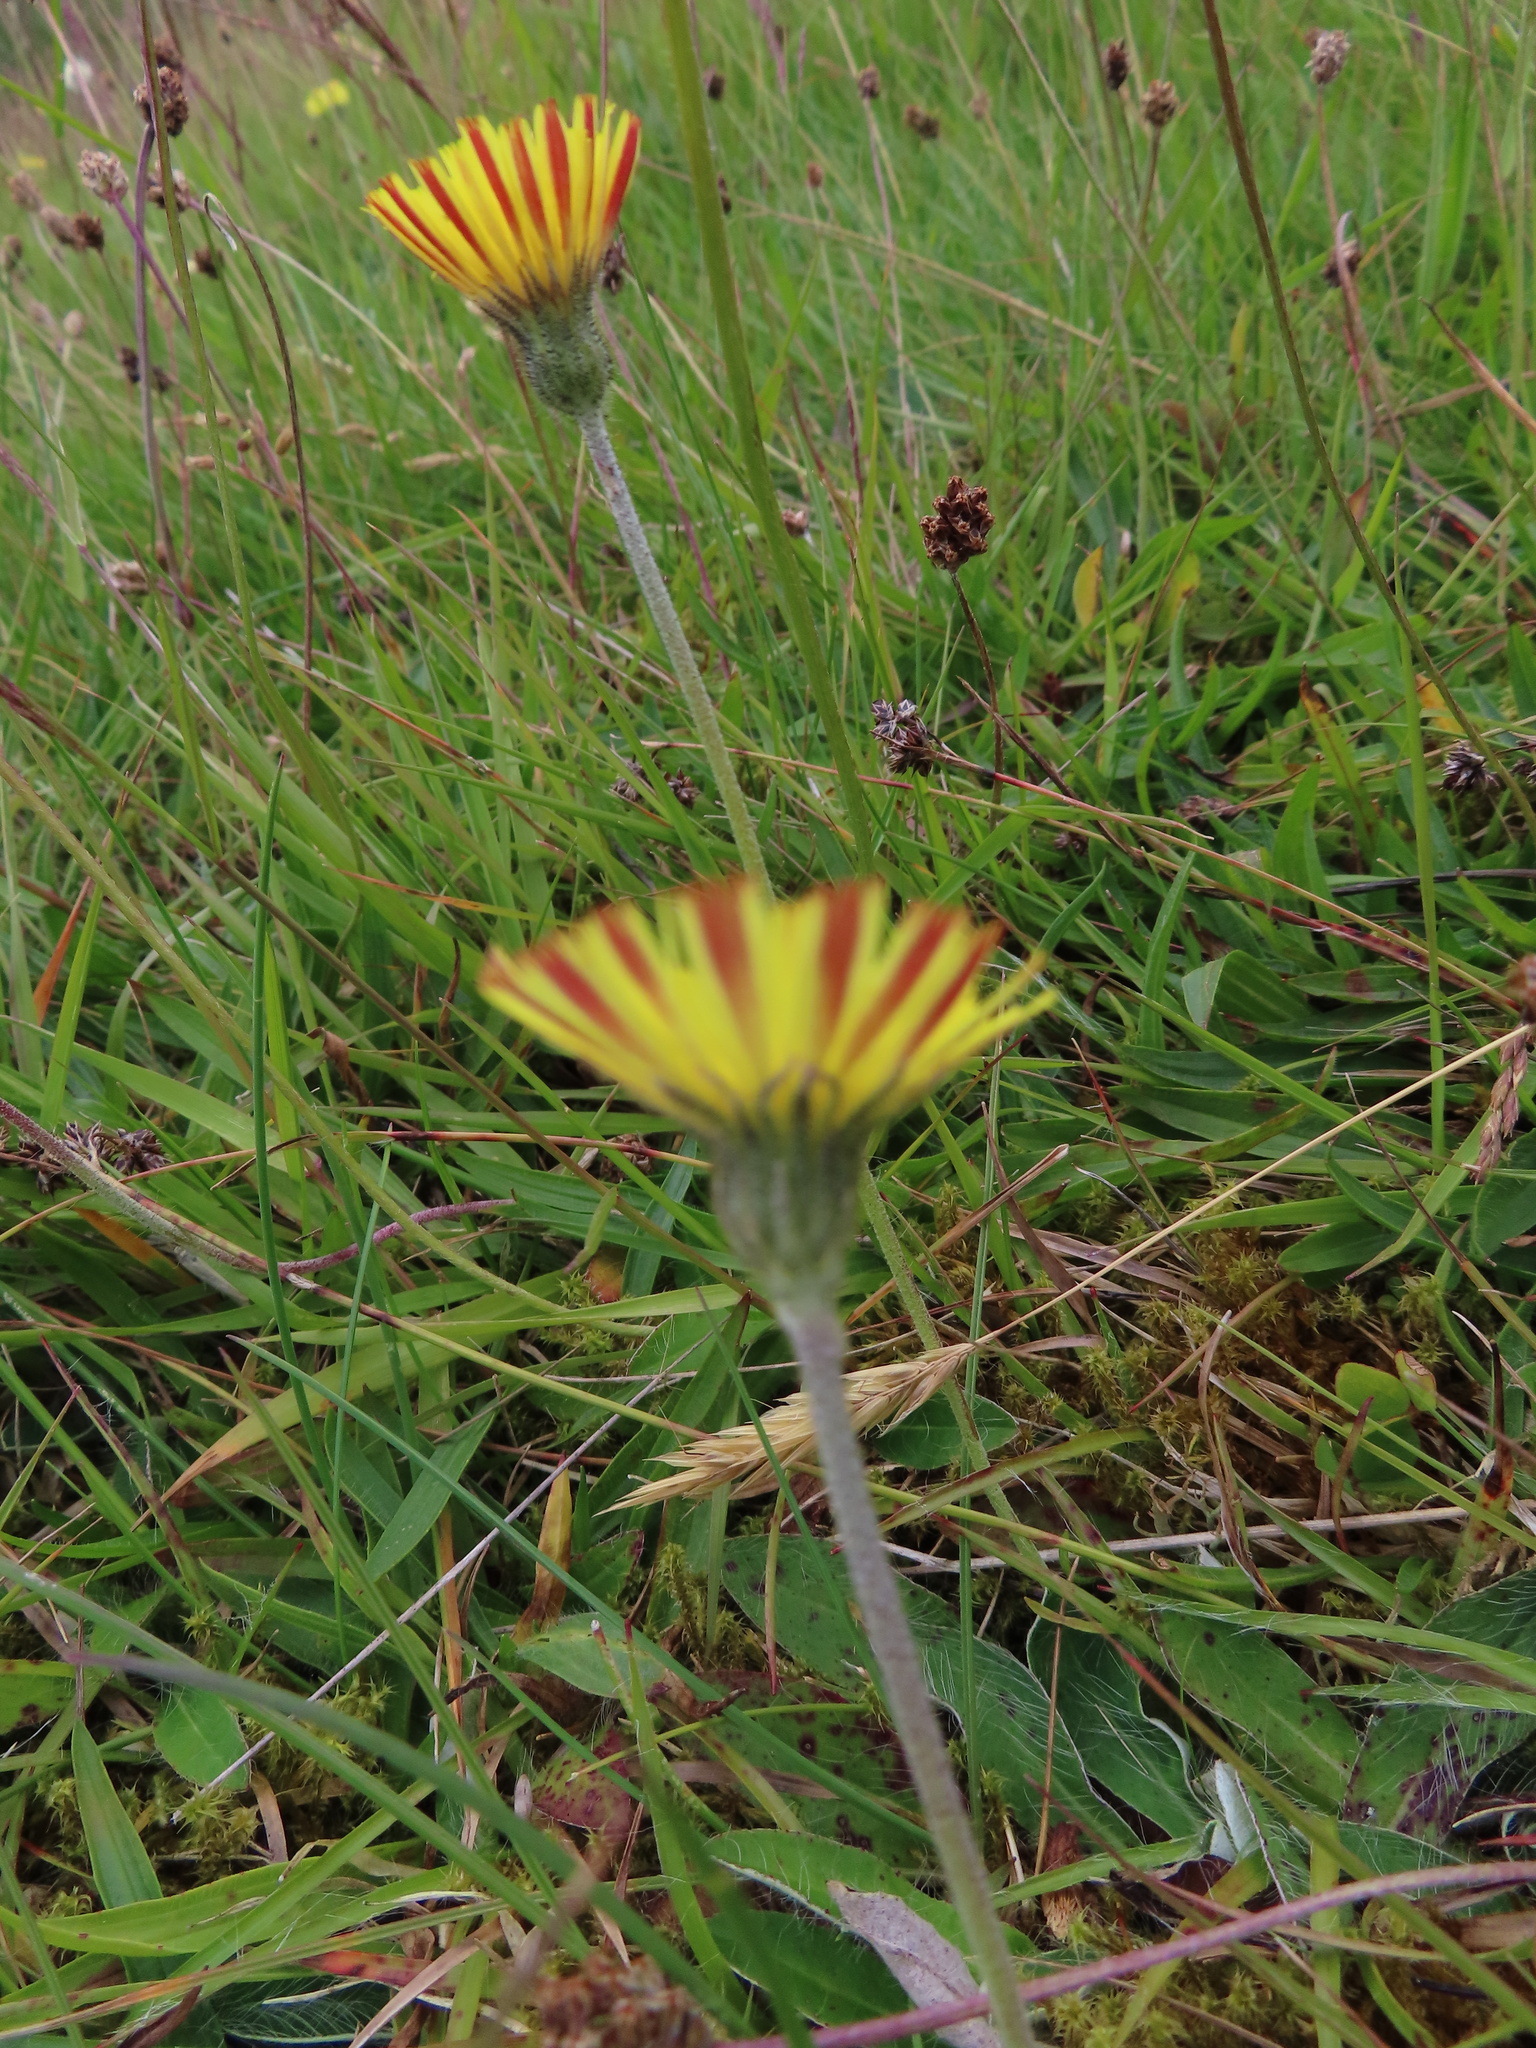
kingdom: Plantae
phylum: Tracheophyta
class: Magnoliopsida
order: Asterales
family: Asteraceae
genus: Pilosella
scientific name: Pilosella officinarum
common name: Mouse-ear hawkweed
